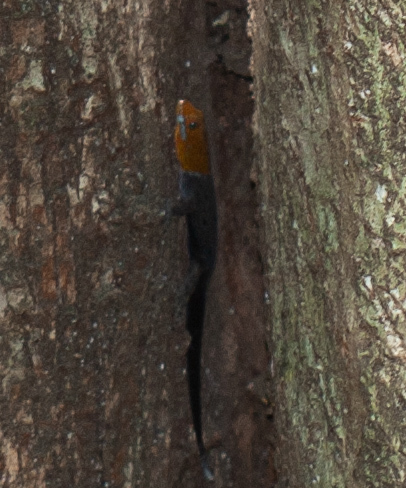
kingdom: Animalia
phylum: Chordata
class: Squamata
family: Sphaerodactylidae
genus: Gonatodes
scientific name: Gonatodes albogularis
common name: Yellow-headed gecko
